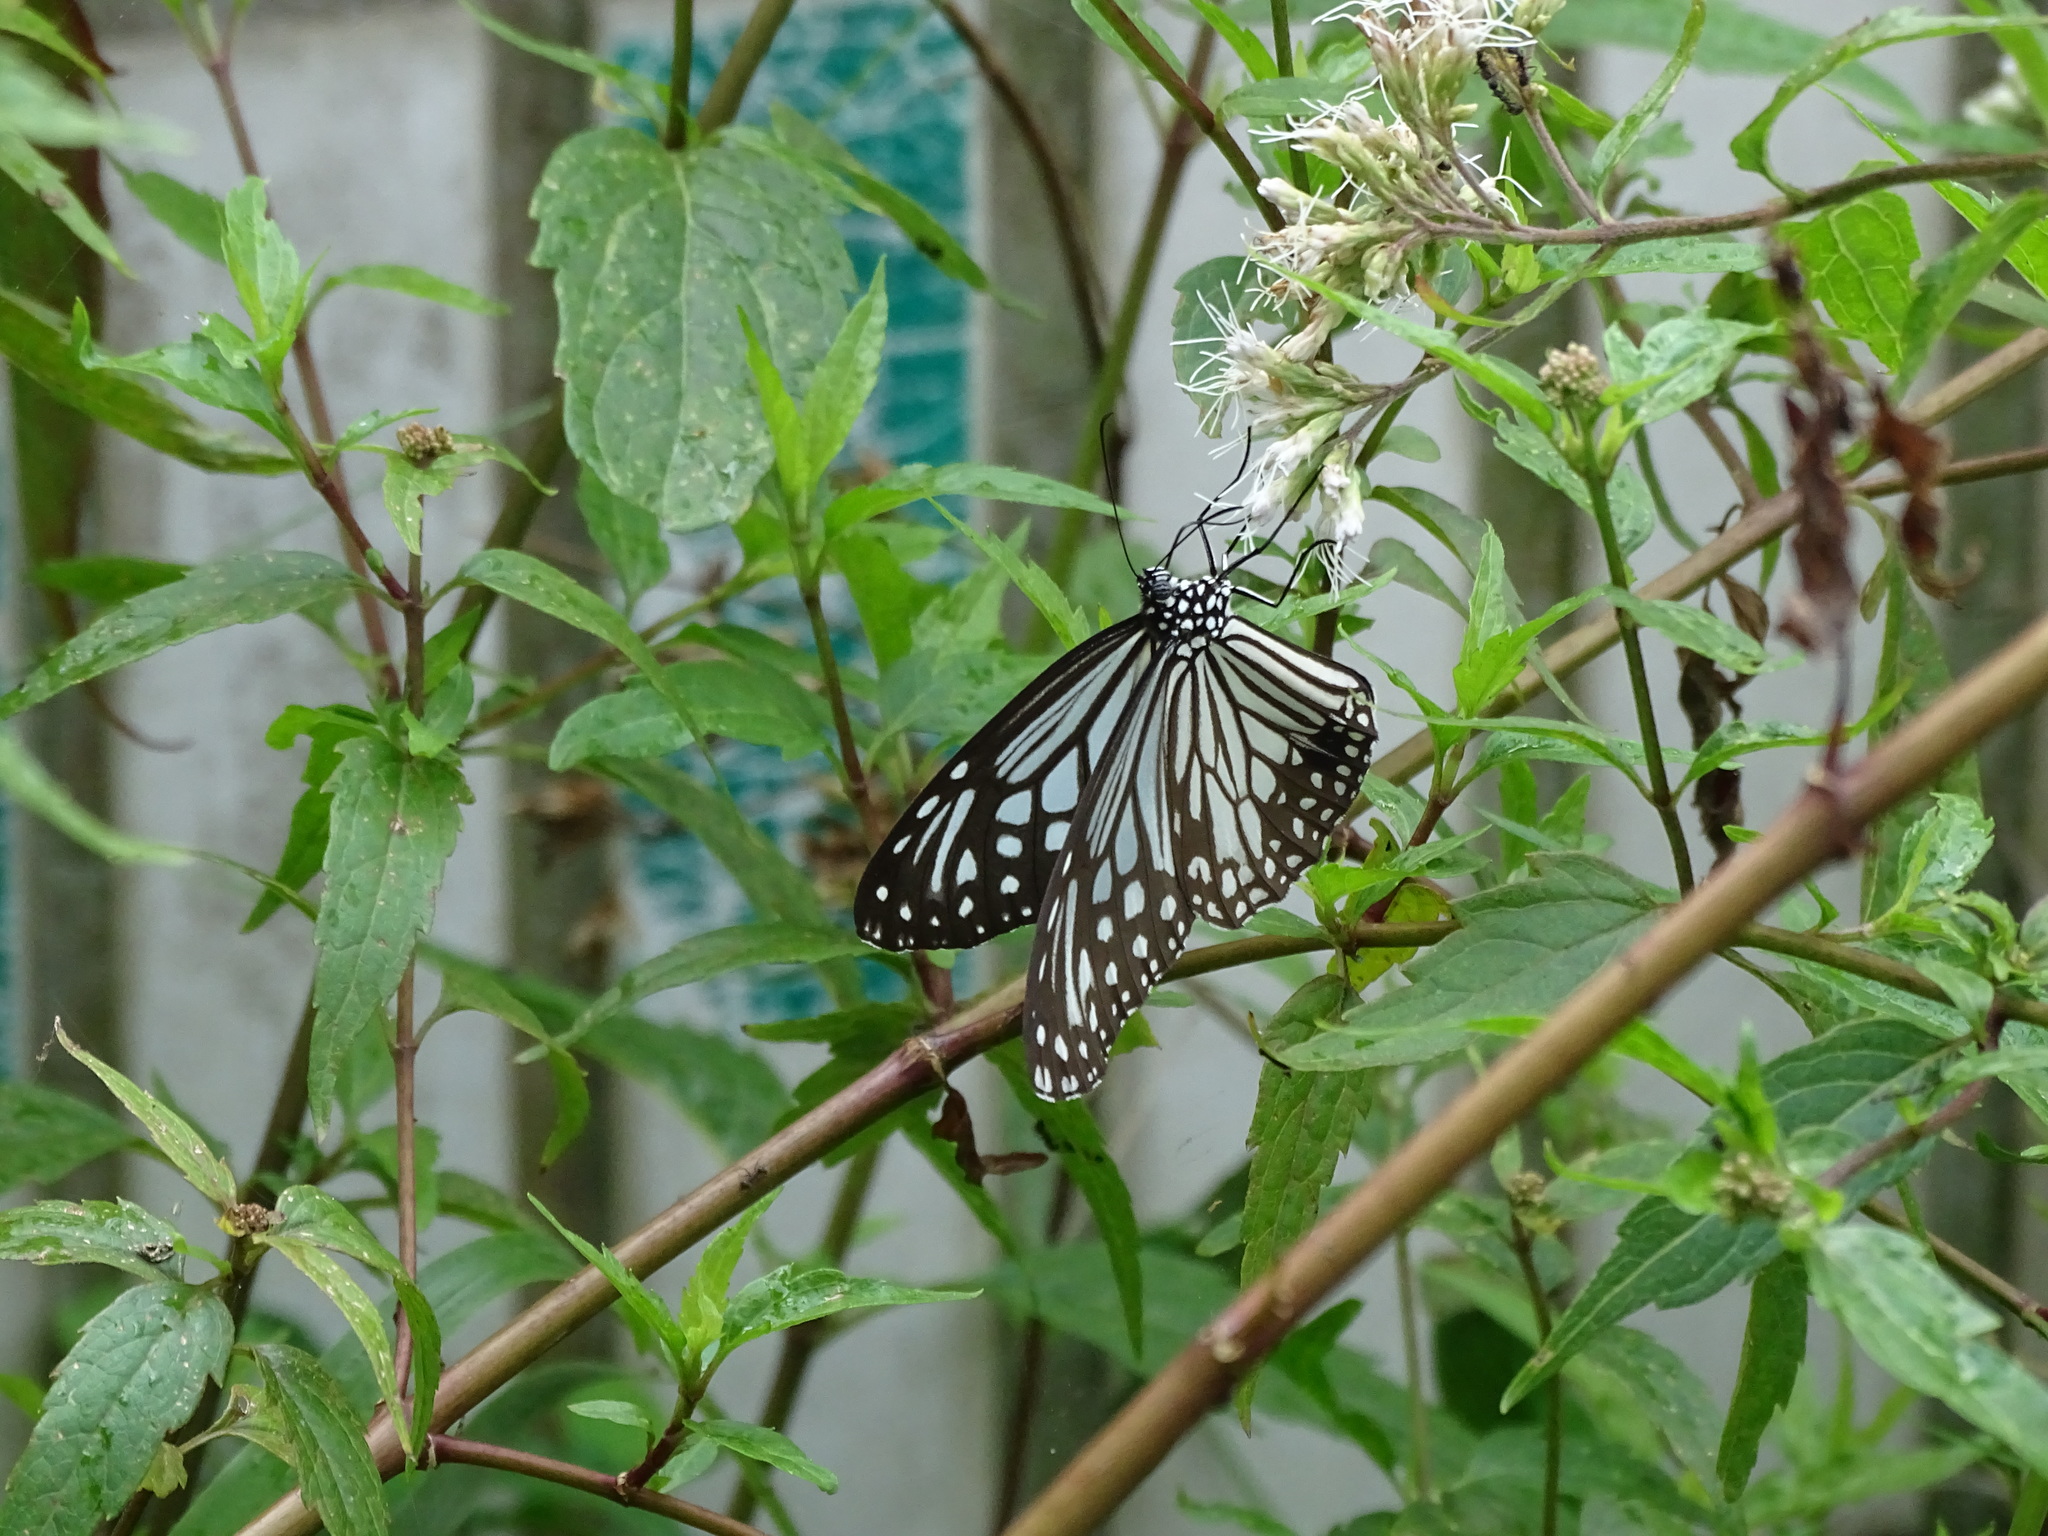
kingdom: Animalia
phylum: Arthropoda
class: Insecta
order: Lepidoptera
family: Nymphalidae
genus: Parantica
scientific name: Parantica aglea
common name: Glassy tiger
